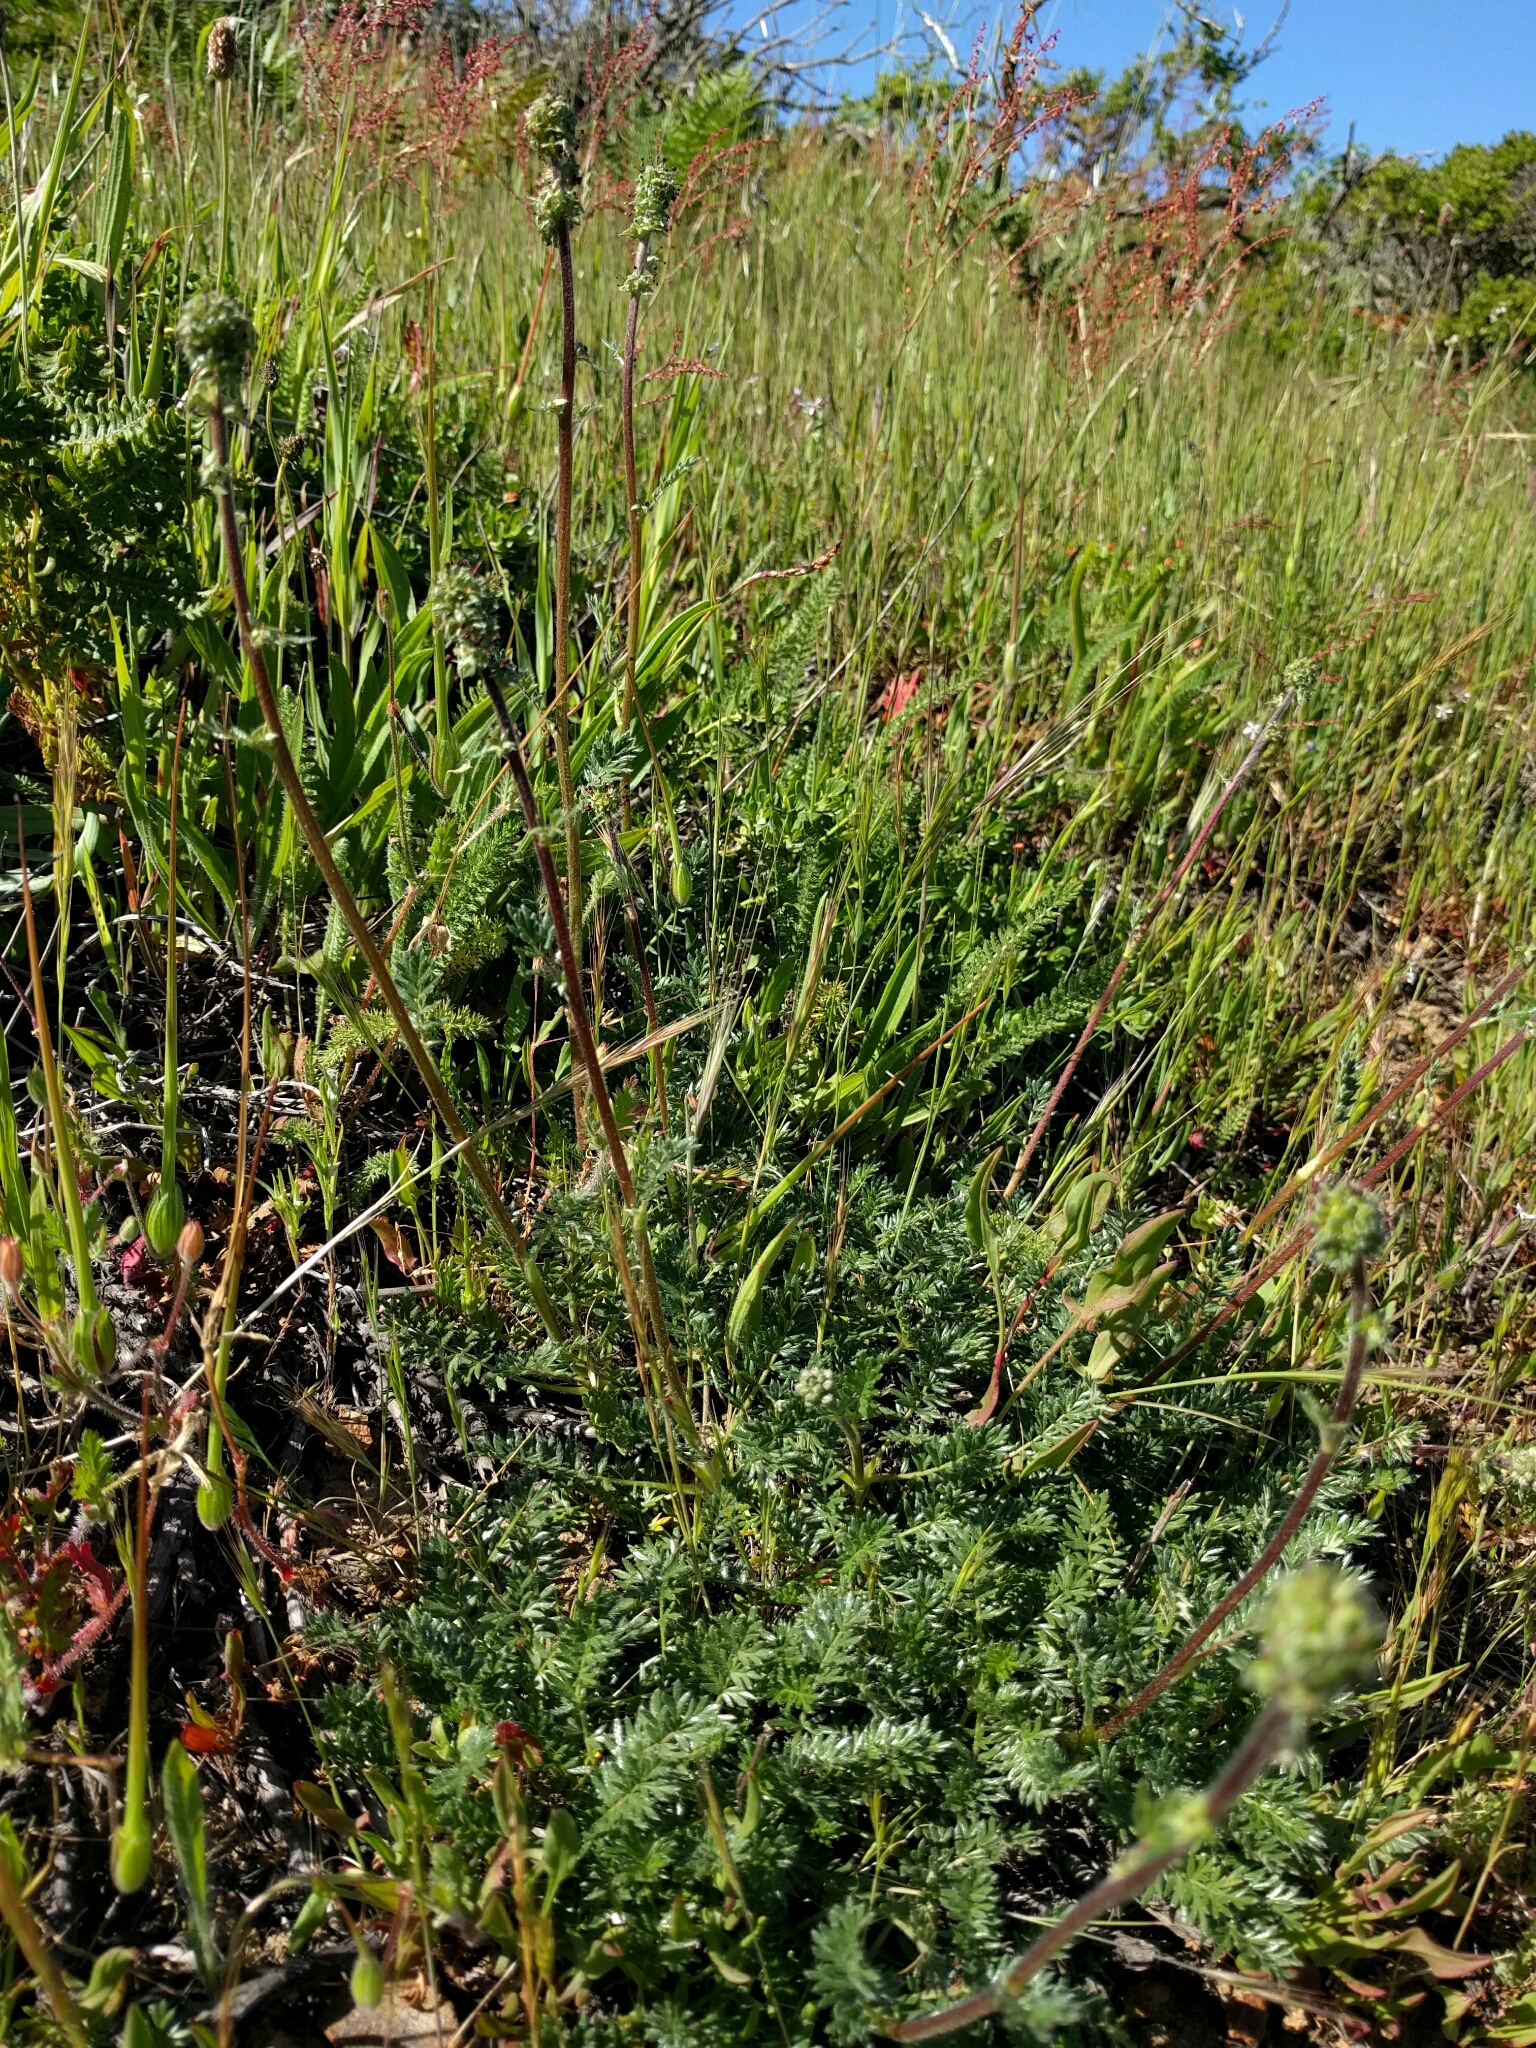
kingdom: Plantae
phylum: Tracheophyta
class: Magnoliopsida
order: Rosales
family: Rosaceae
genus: Acaena
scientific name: Acaena pinnatifida
